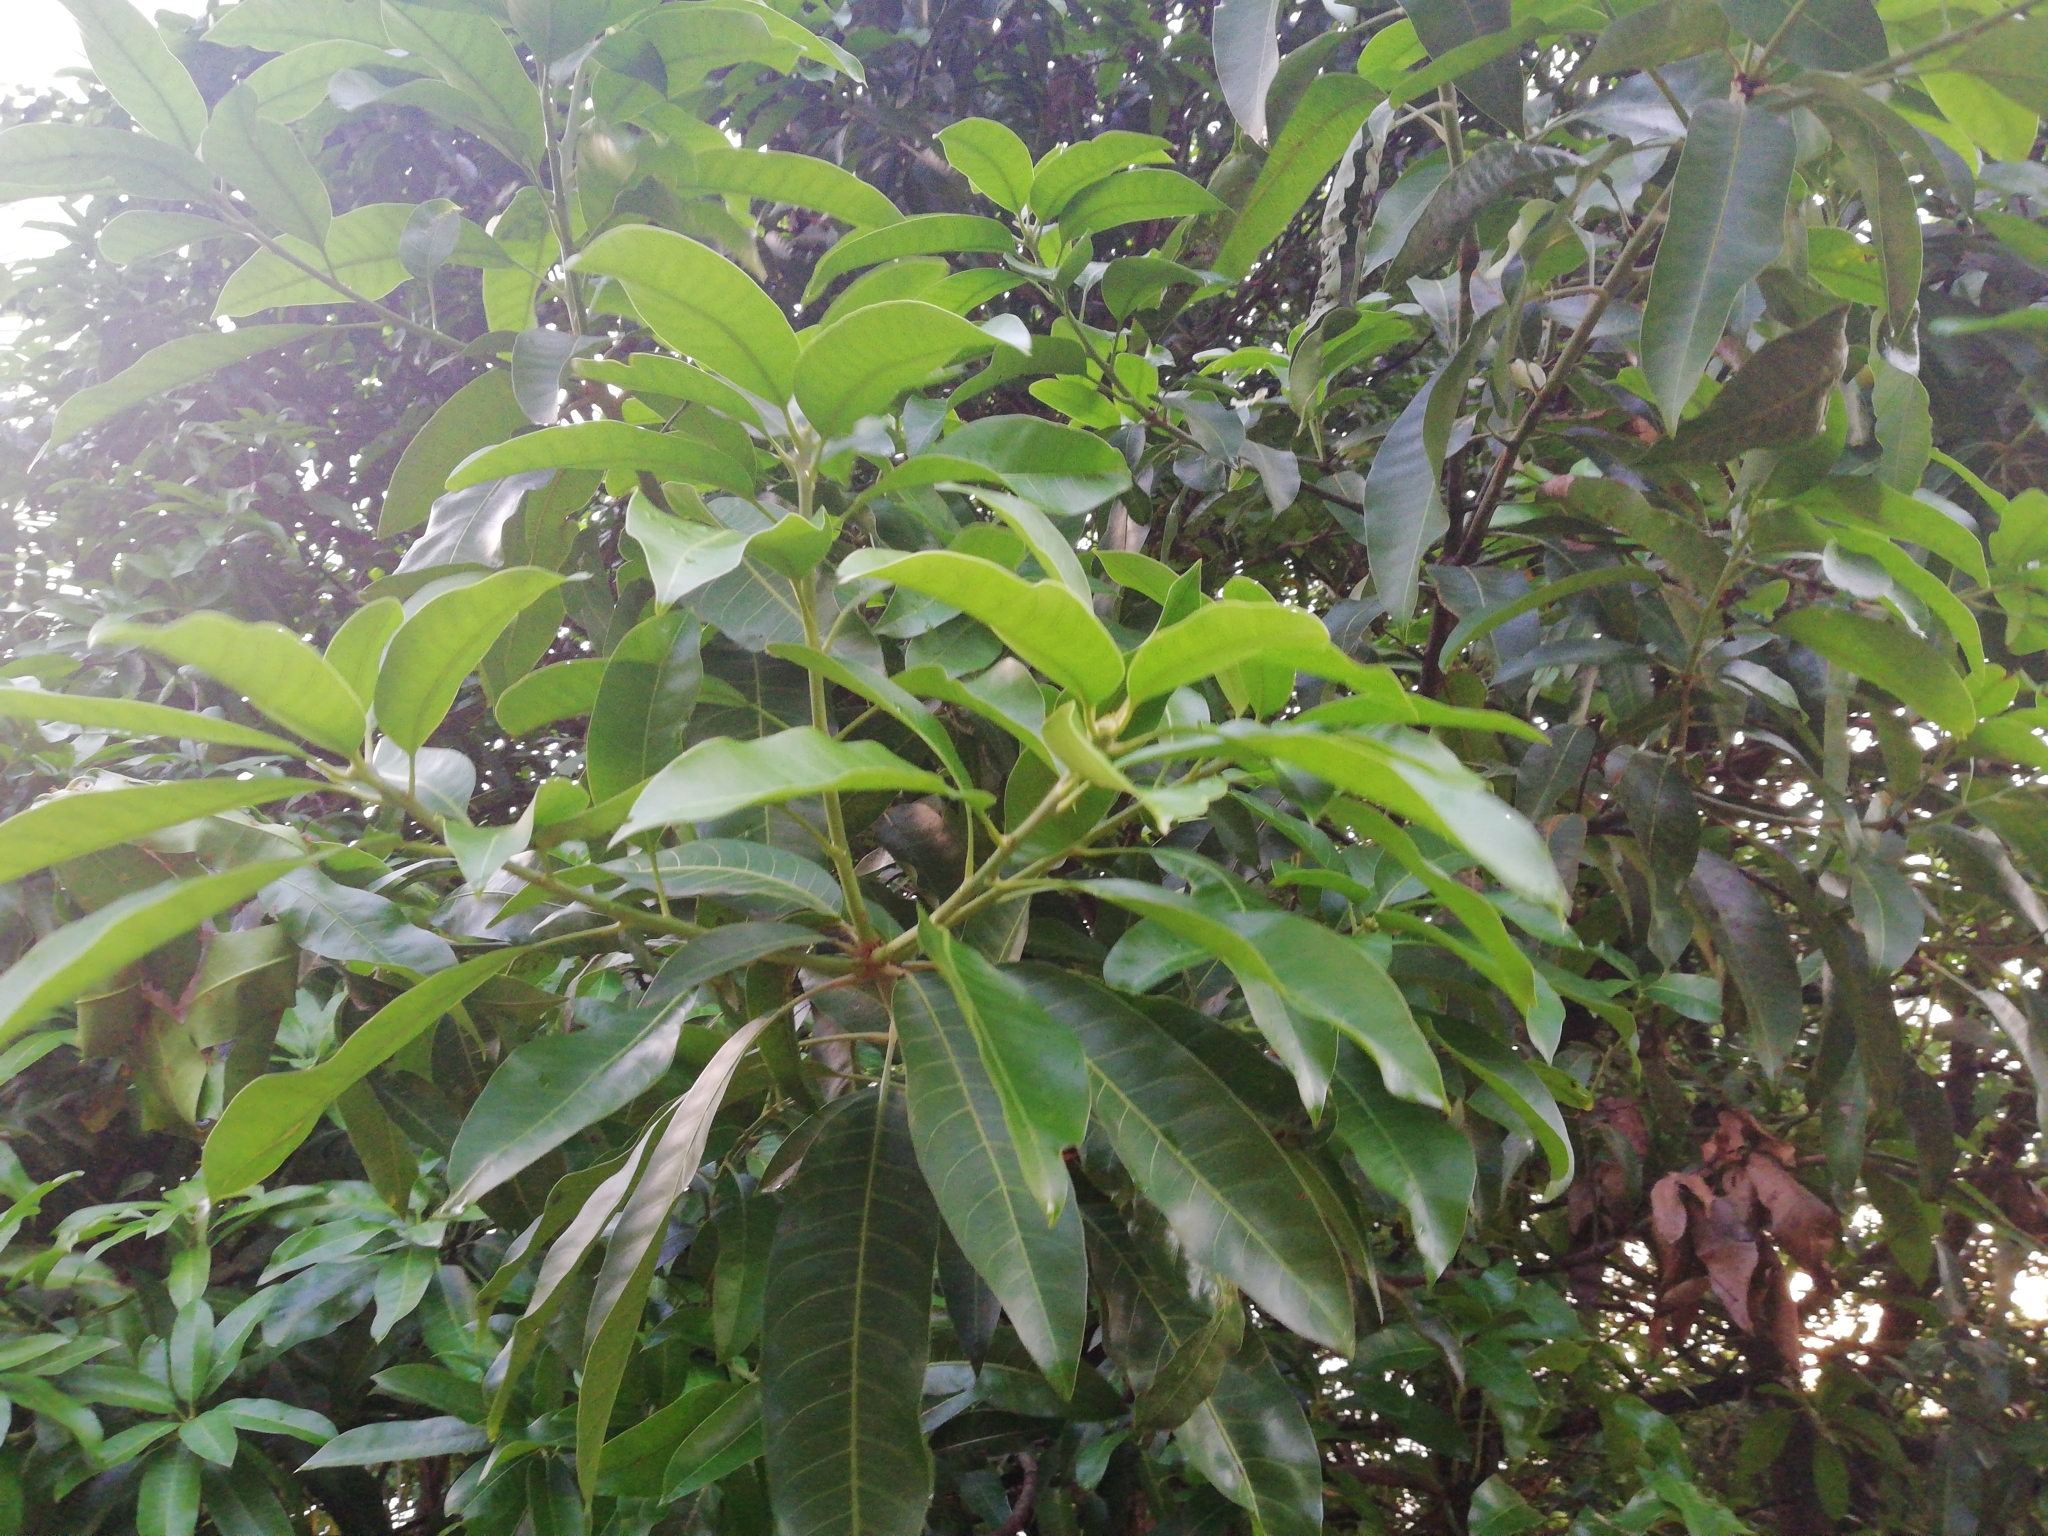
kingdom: Plantae
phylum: Tracheophyta
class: Magnoliopsida
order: Sapindales
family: Anacardiaceae
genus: Mangifera
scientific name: Mangifera indica
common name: Mango
